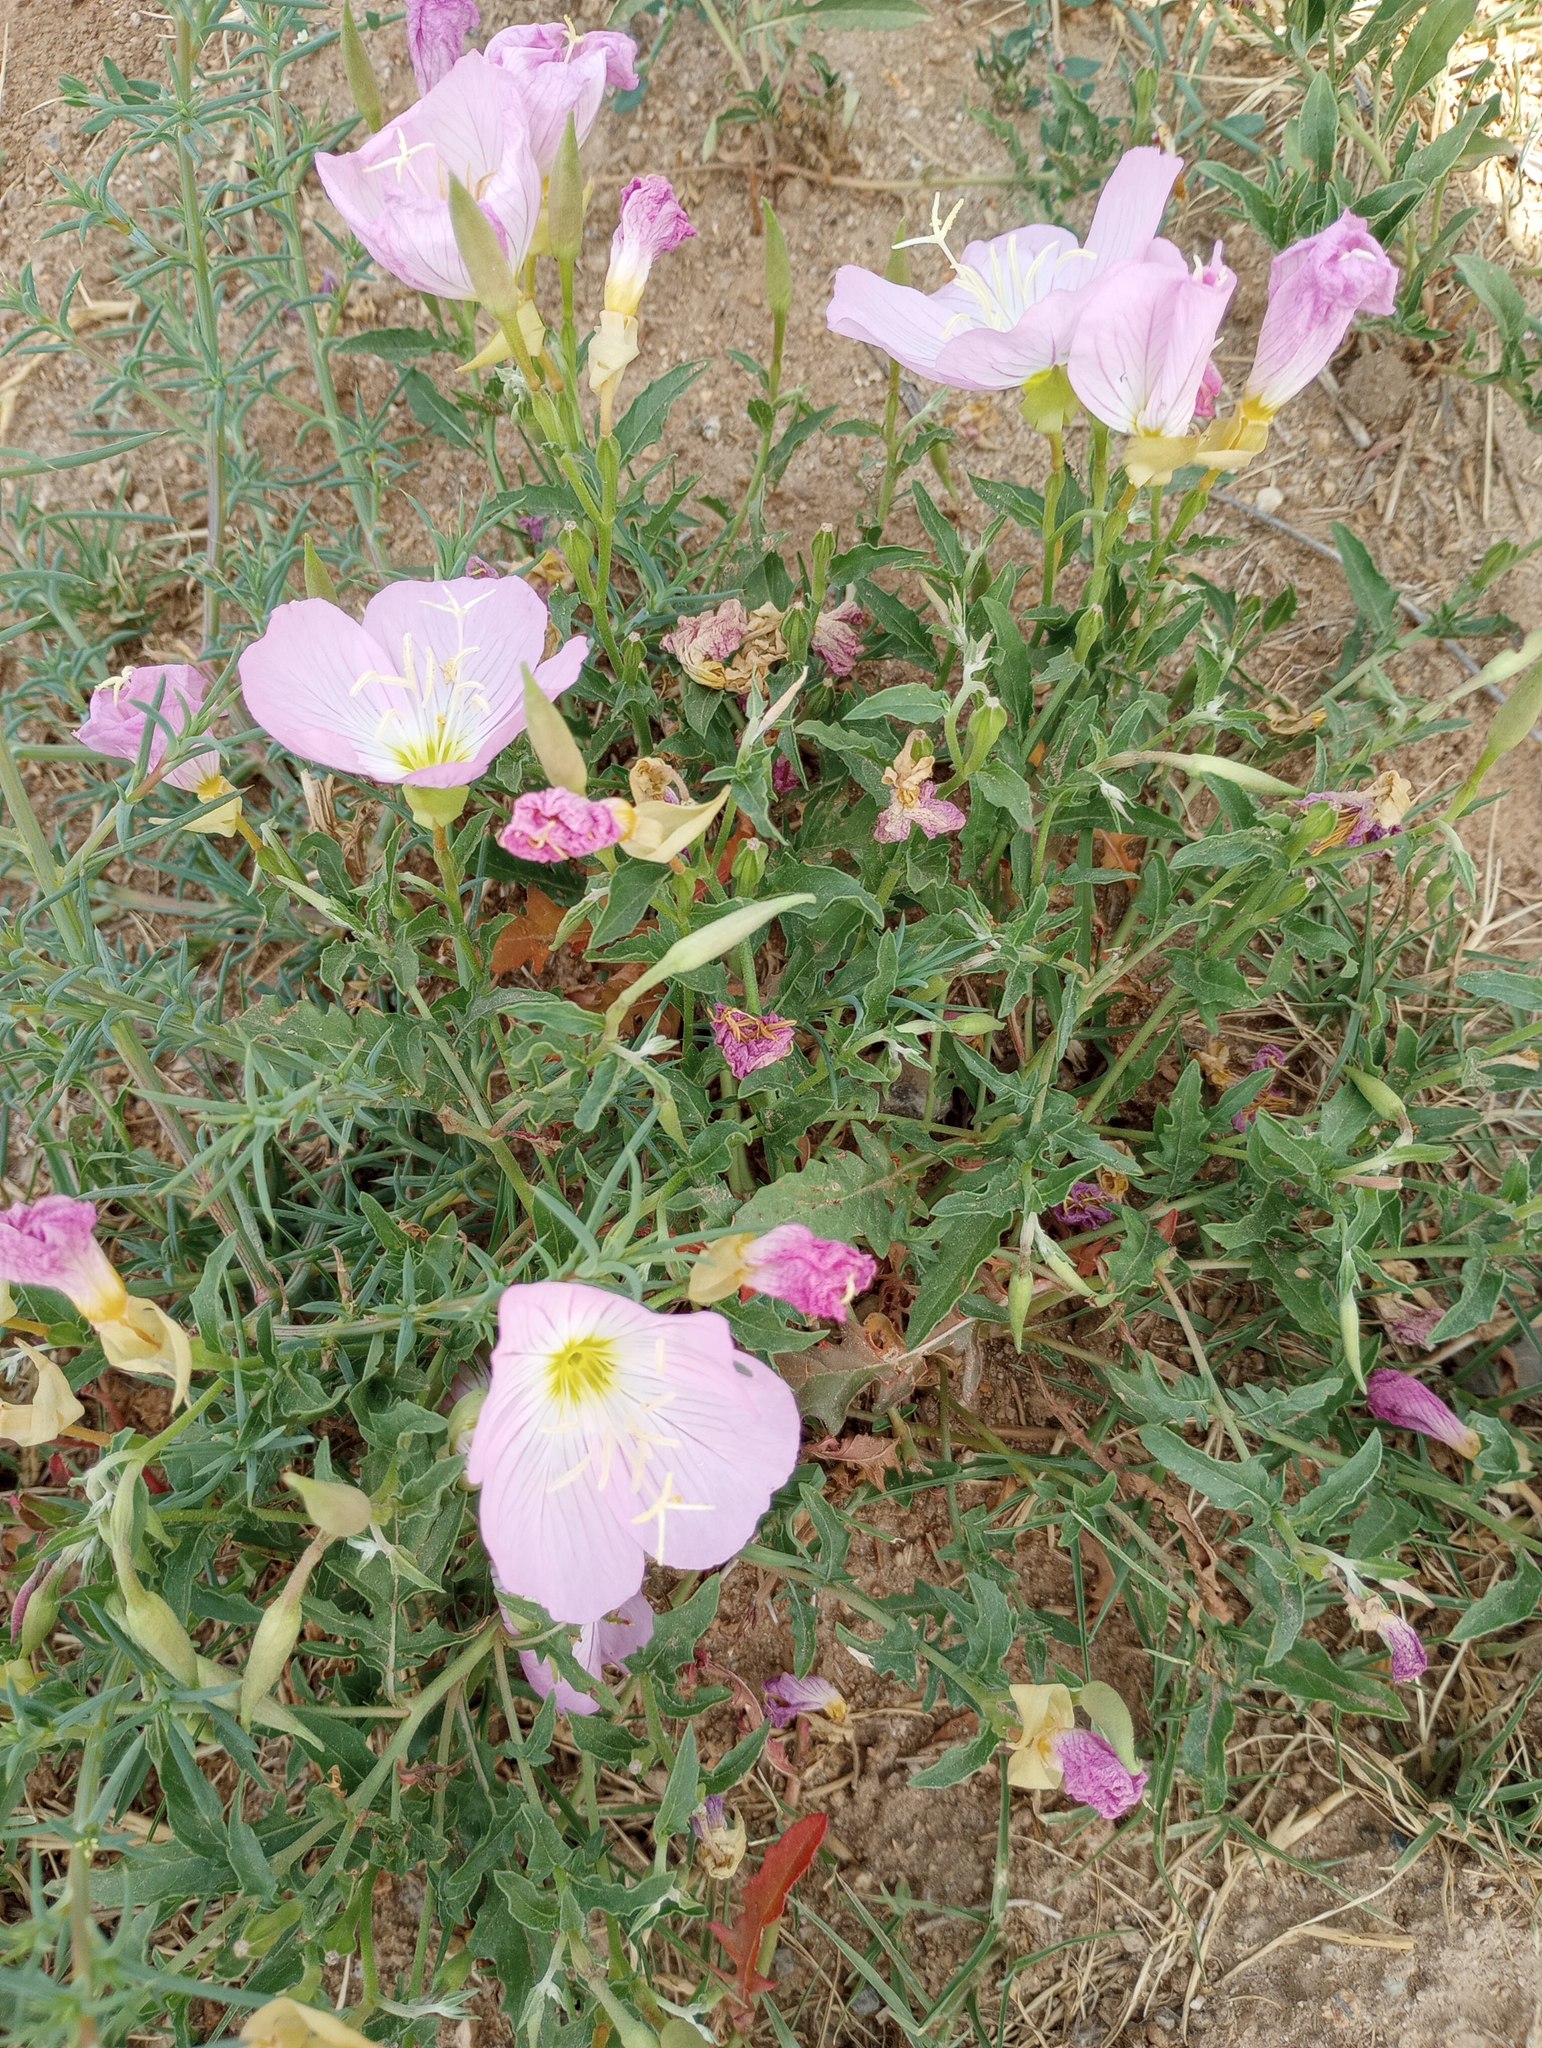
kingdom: Plantae
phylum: Tracheophyta
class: Magnoliopsida
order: Myrtales
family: Onagraceae
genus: Oenothera
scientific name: Oenothera speciosa
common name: White evening-primrose
